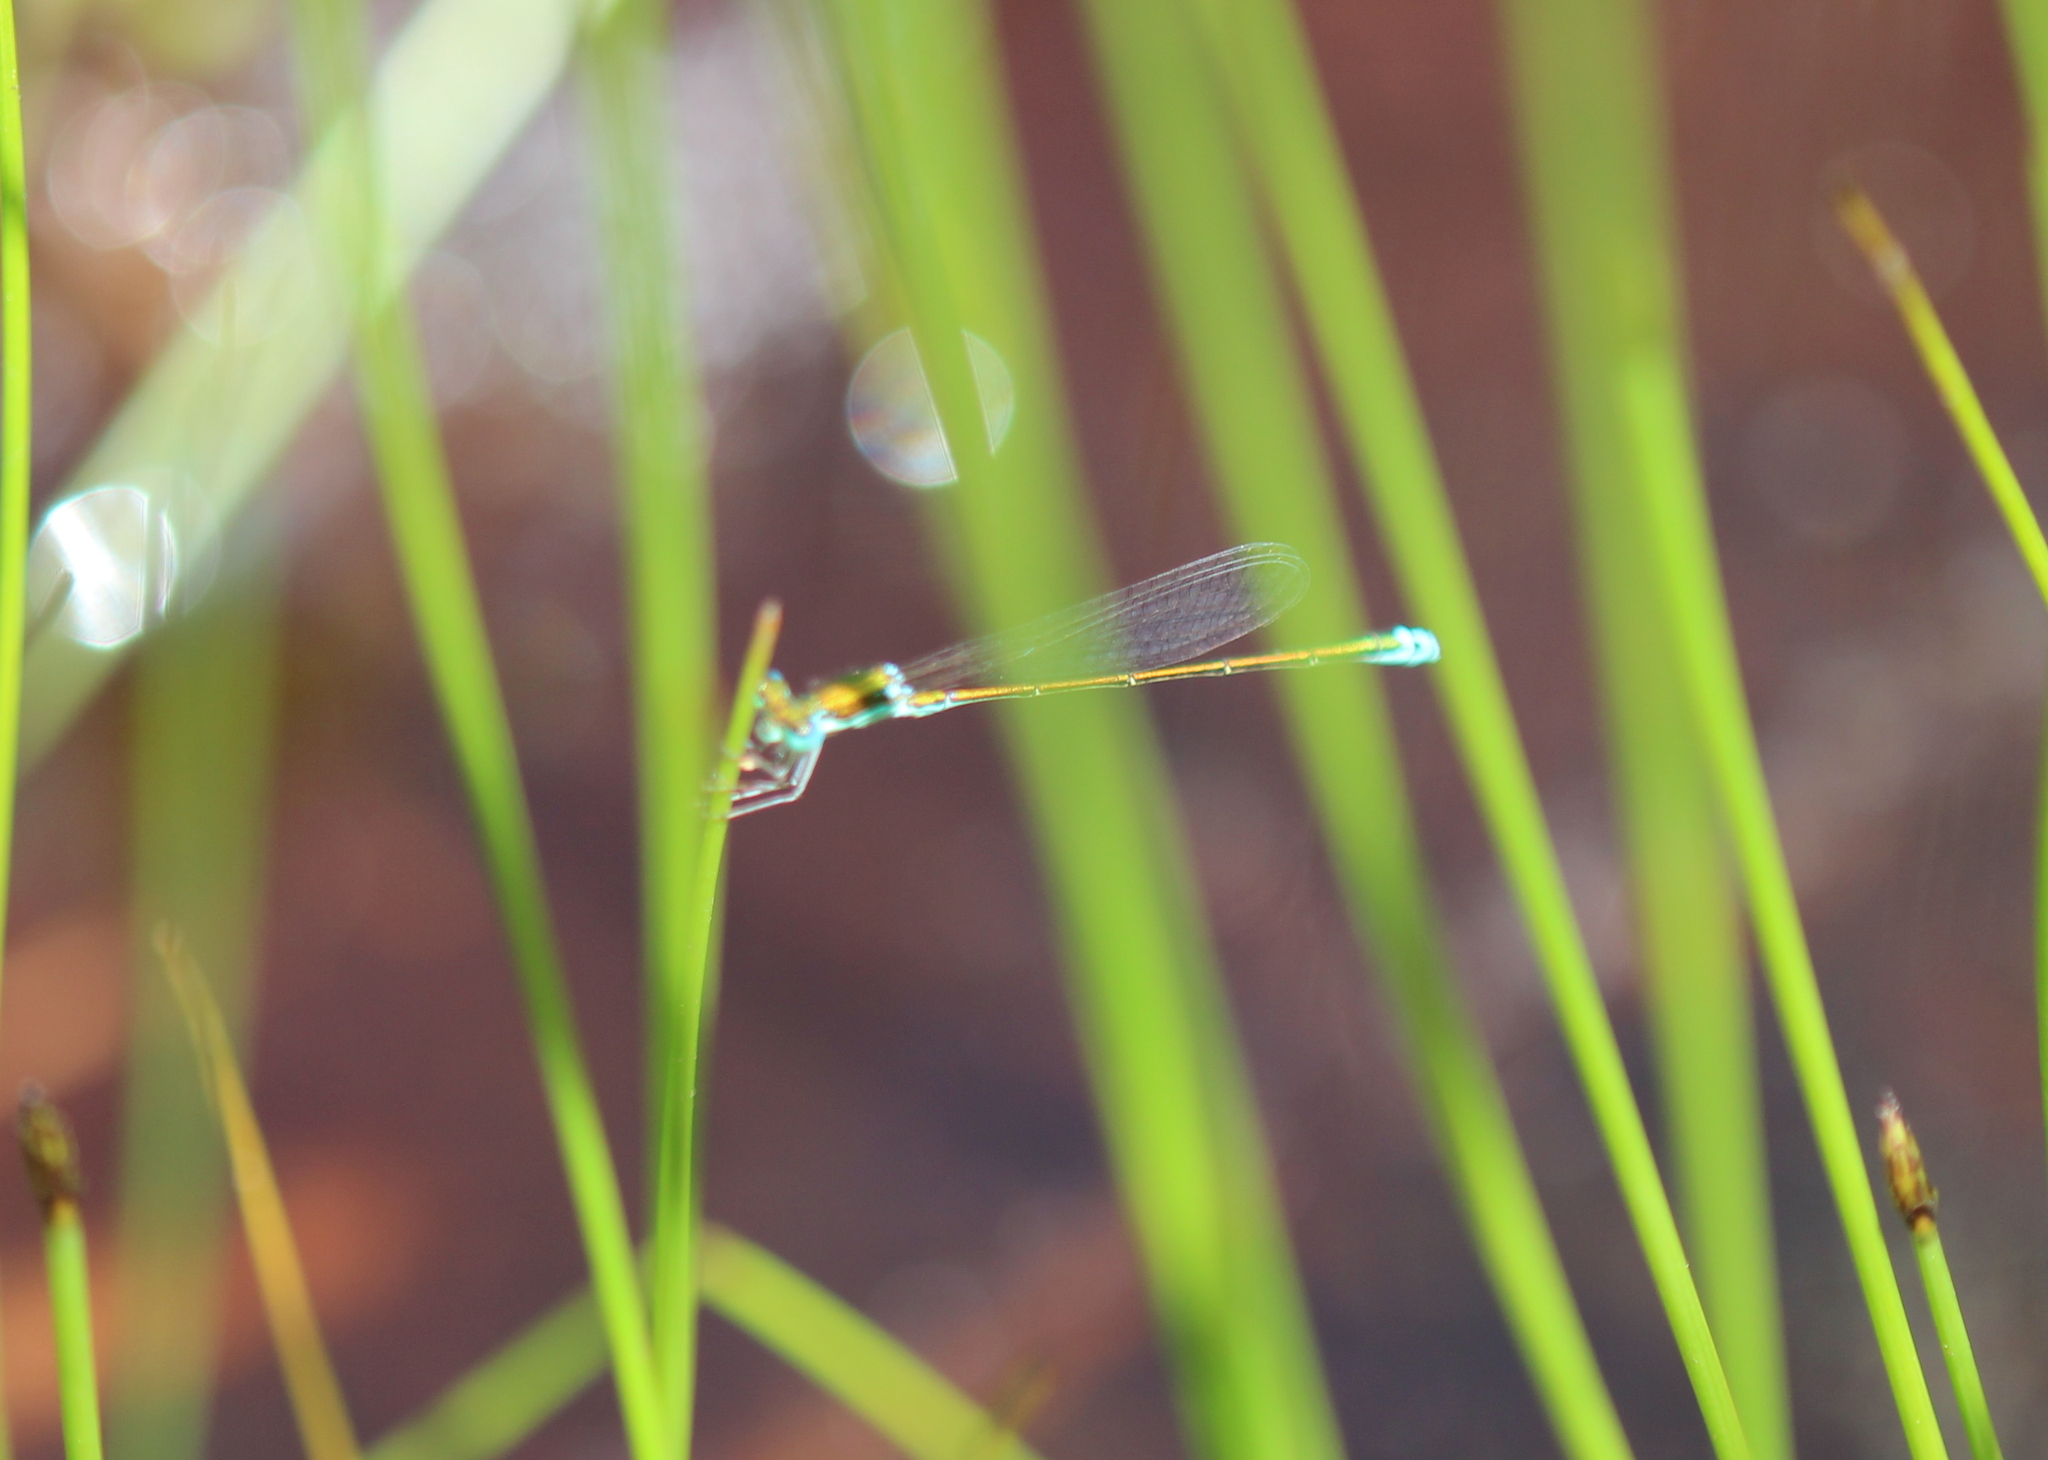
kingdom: Animalia
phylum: Arthropoda
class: Insecta
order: Odonata
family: Coenagrionidae
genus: Nehalennia
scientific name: Nehalennia irene
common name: Sedge sprite
